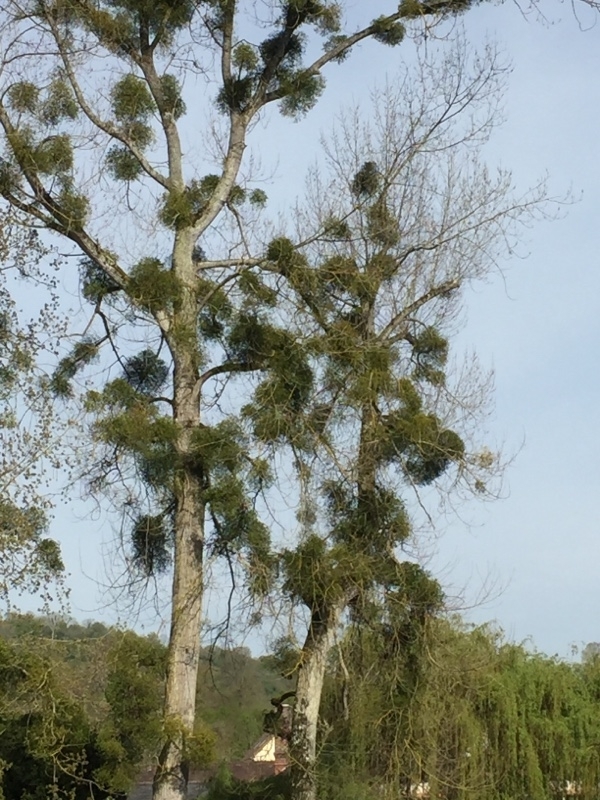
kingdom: Plantae
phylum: Tracheophyta
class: Magnoliopsida
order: Santalales
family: Viscaceae
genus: Viscum
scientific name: Viscum album
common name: Mistletoe
